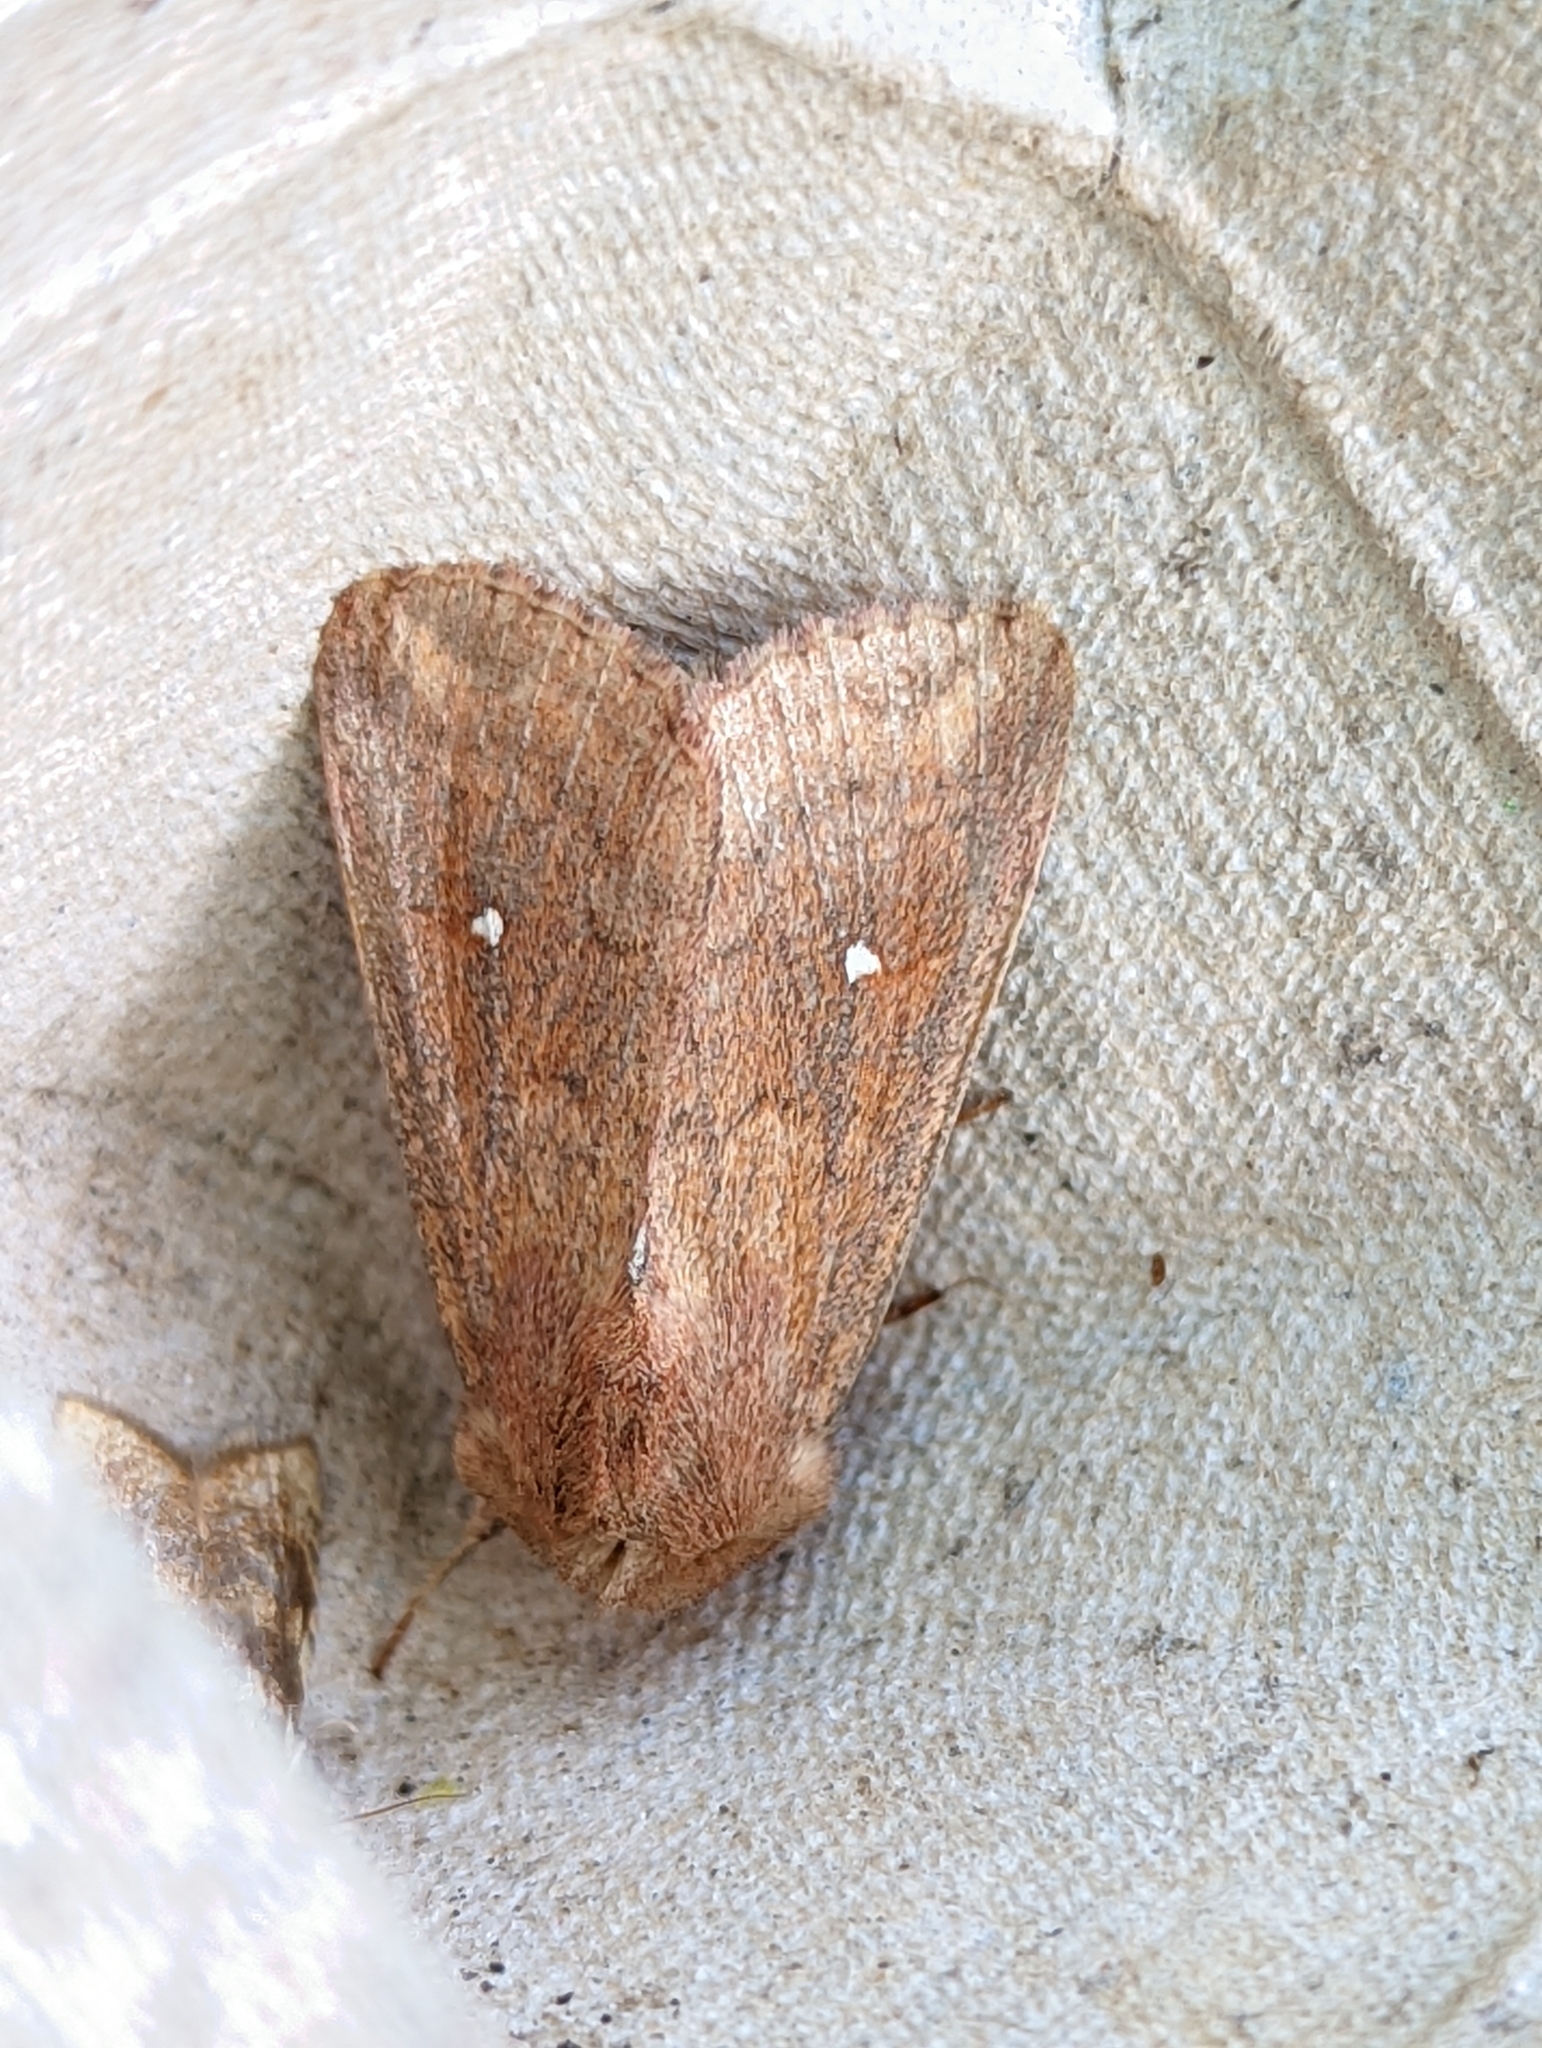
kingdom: Animalia
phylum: Arthropoda
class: Insecta
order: Lepidoptera
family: Noctuidae
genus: Mythimna
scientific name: Mythimna albipuncta
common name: White-point
